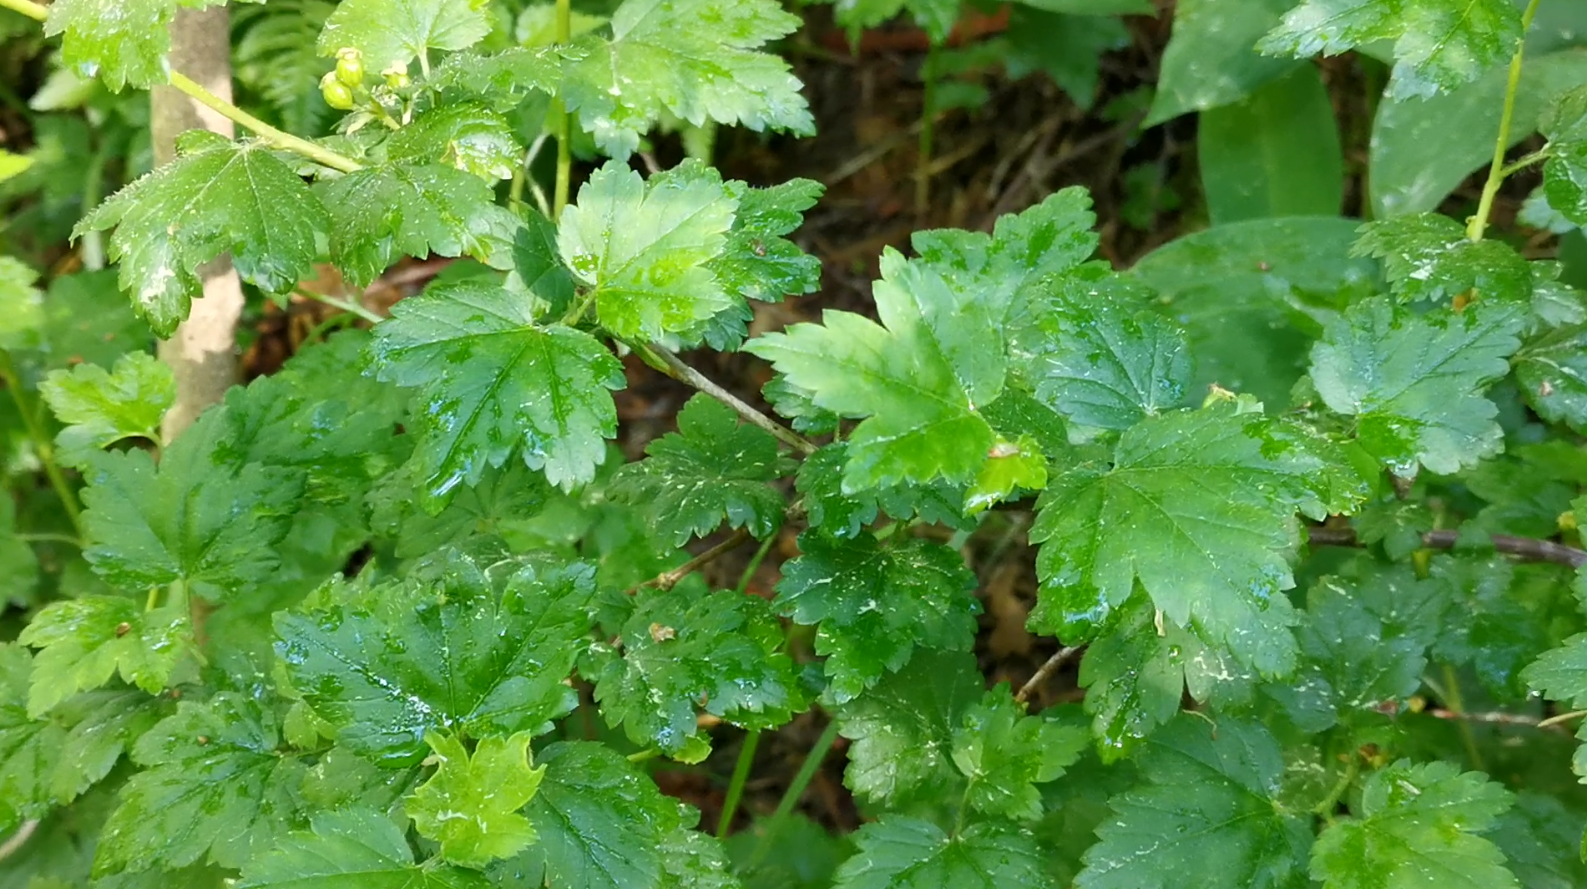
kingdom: Plantae
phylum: Tracheophyta
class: Magnoliopsida
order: Saxifragales
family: Grossulariaceae
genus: Ribes
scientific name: Ribes alpinum
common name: Alpine currant
